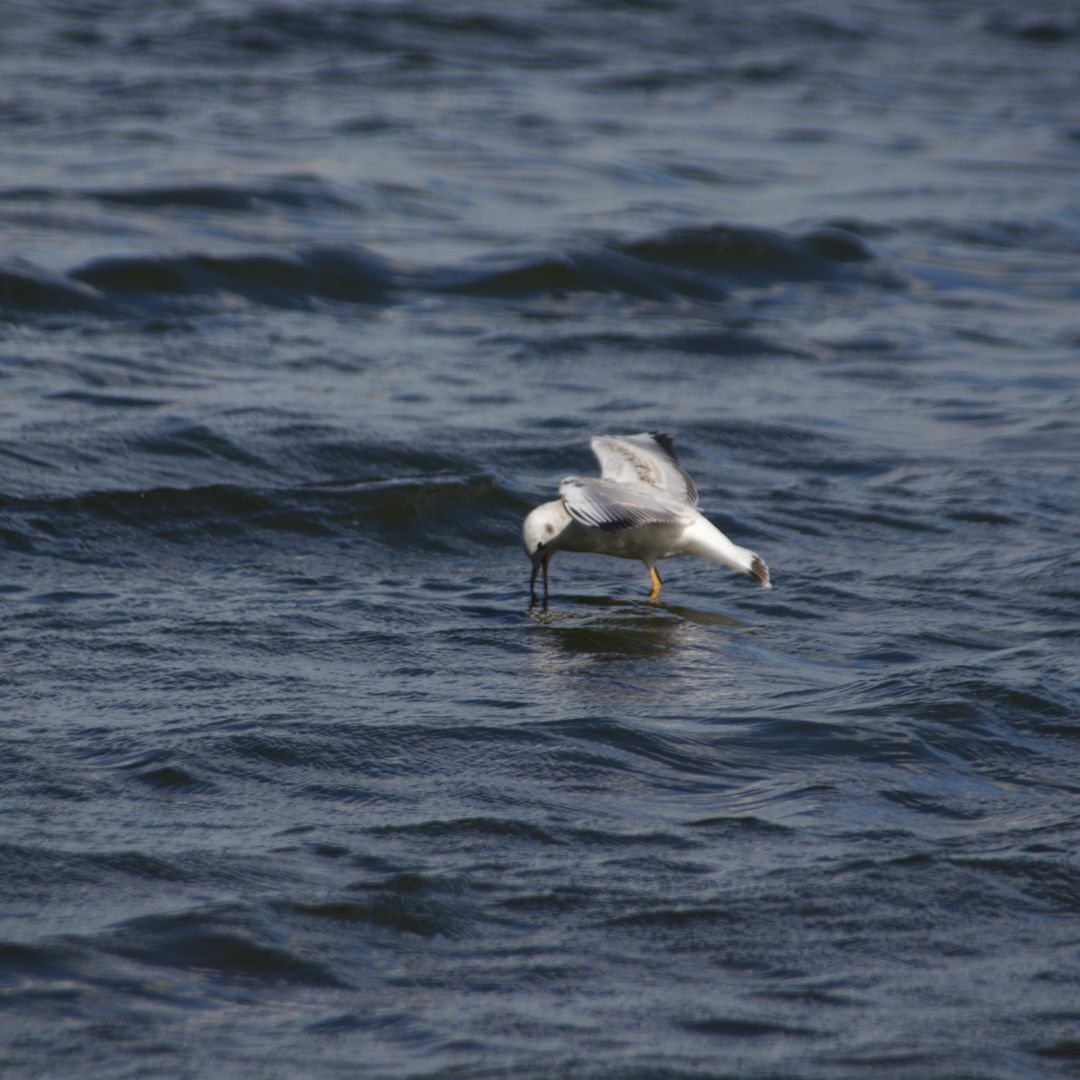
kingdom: Animalia
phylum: Chordata
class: Aves
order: Charadriiformes
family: Laridae
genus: Chroicocephalus
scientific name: Chroicocephalus ridibundus
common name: Black-headed gull
